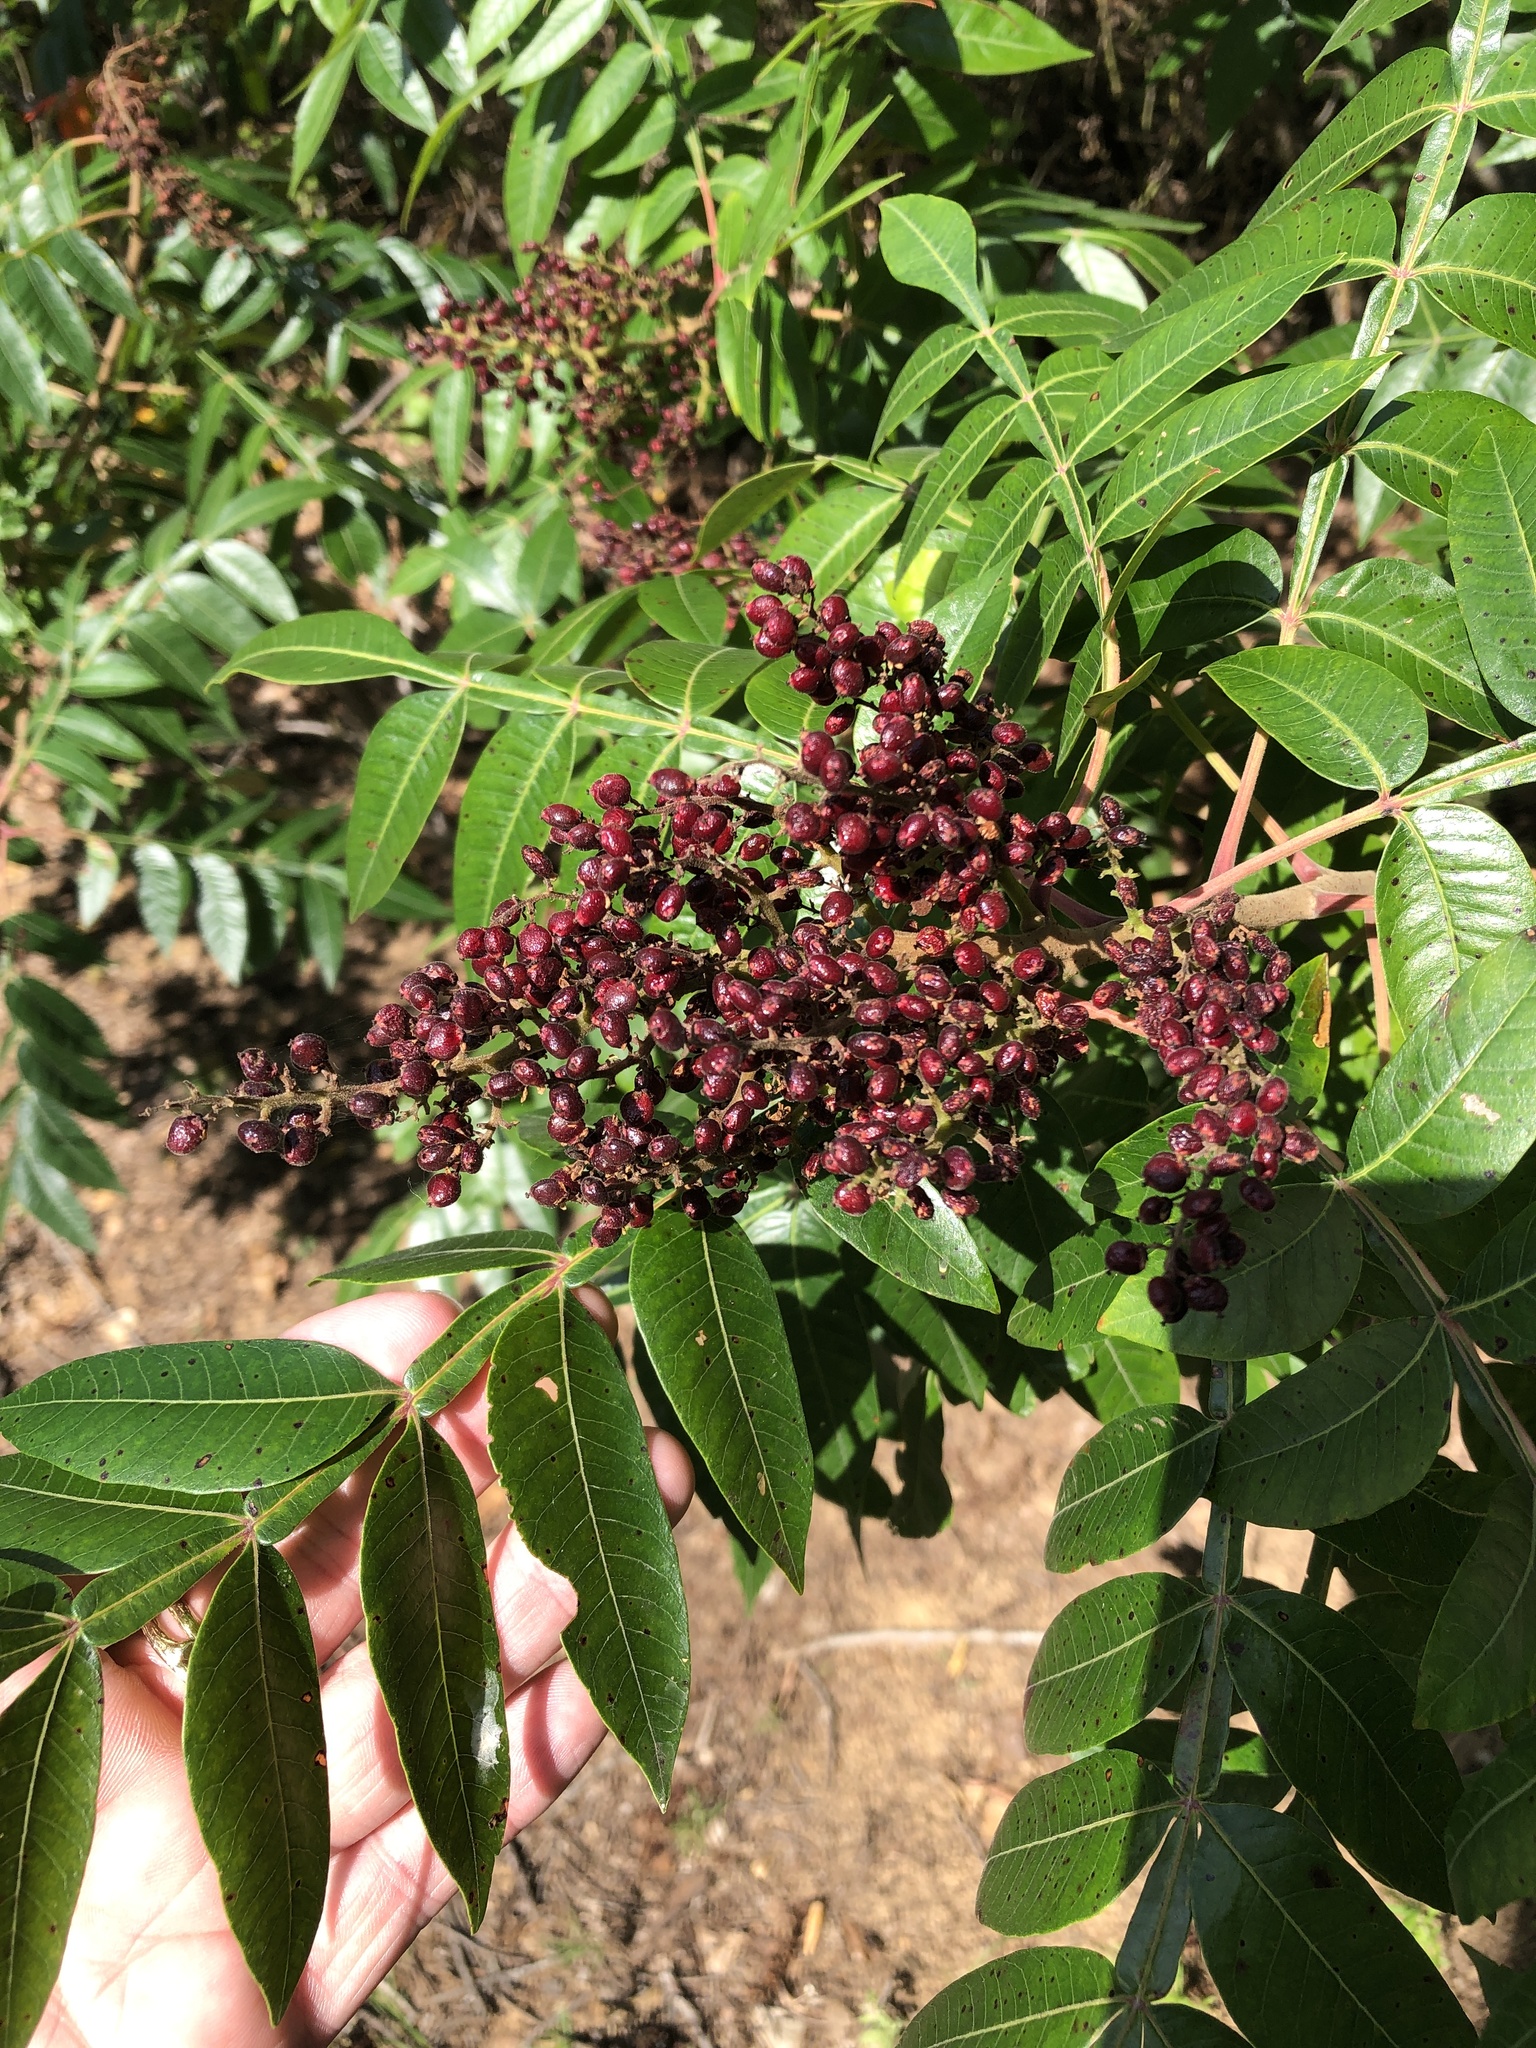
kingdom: Plantae
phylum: Tracheophyta
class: Magnoliopsida
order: Sapindales
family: Anacardiaceae
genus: Rhus
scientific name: Rhus copallina
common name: Shining sumac
